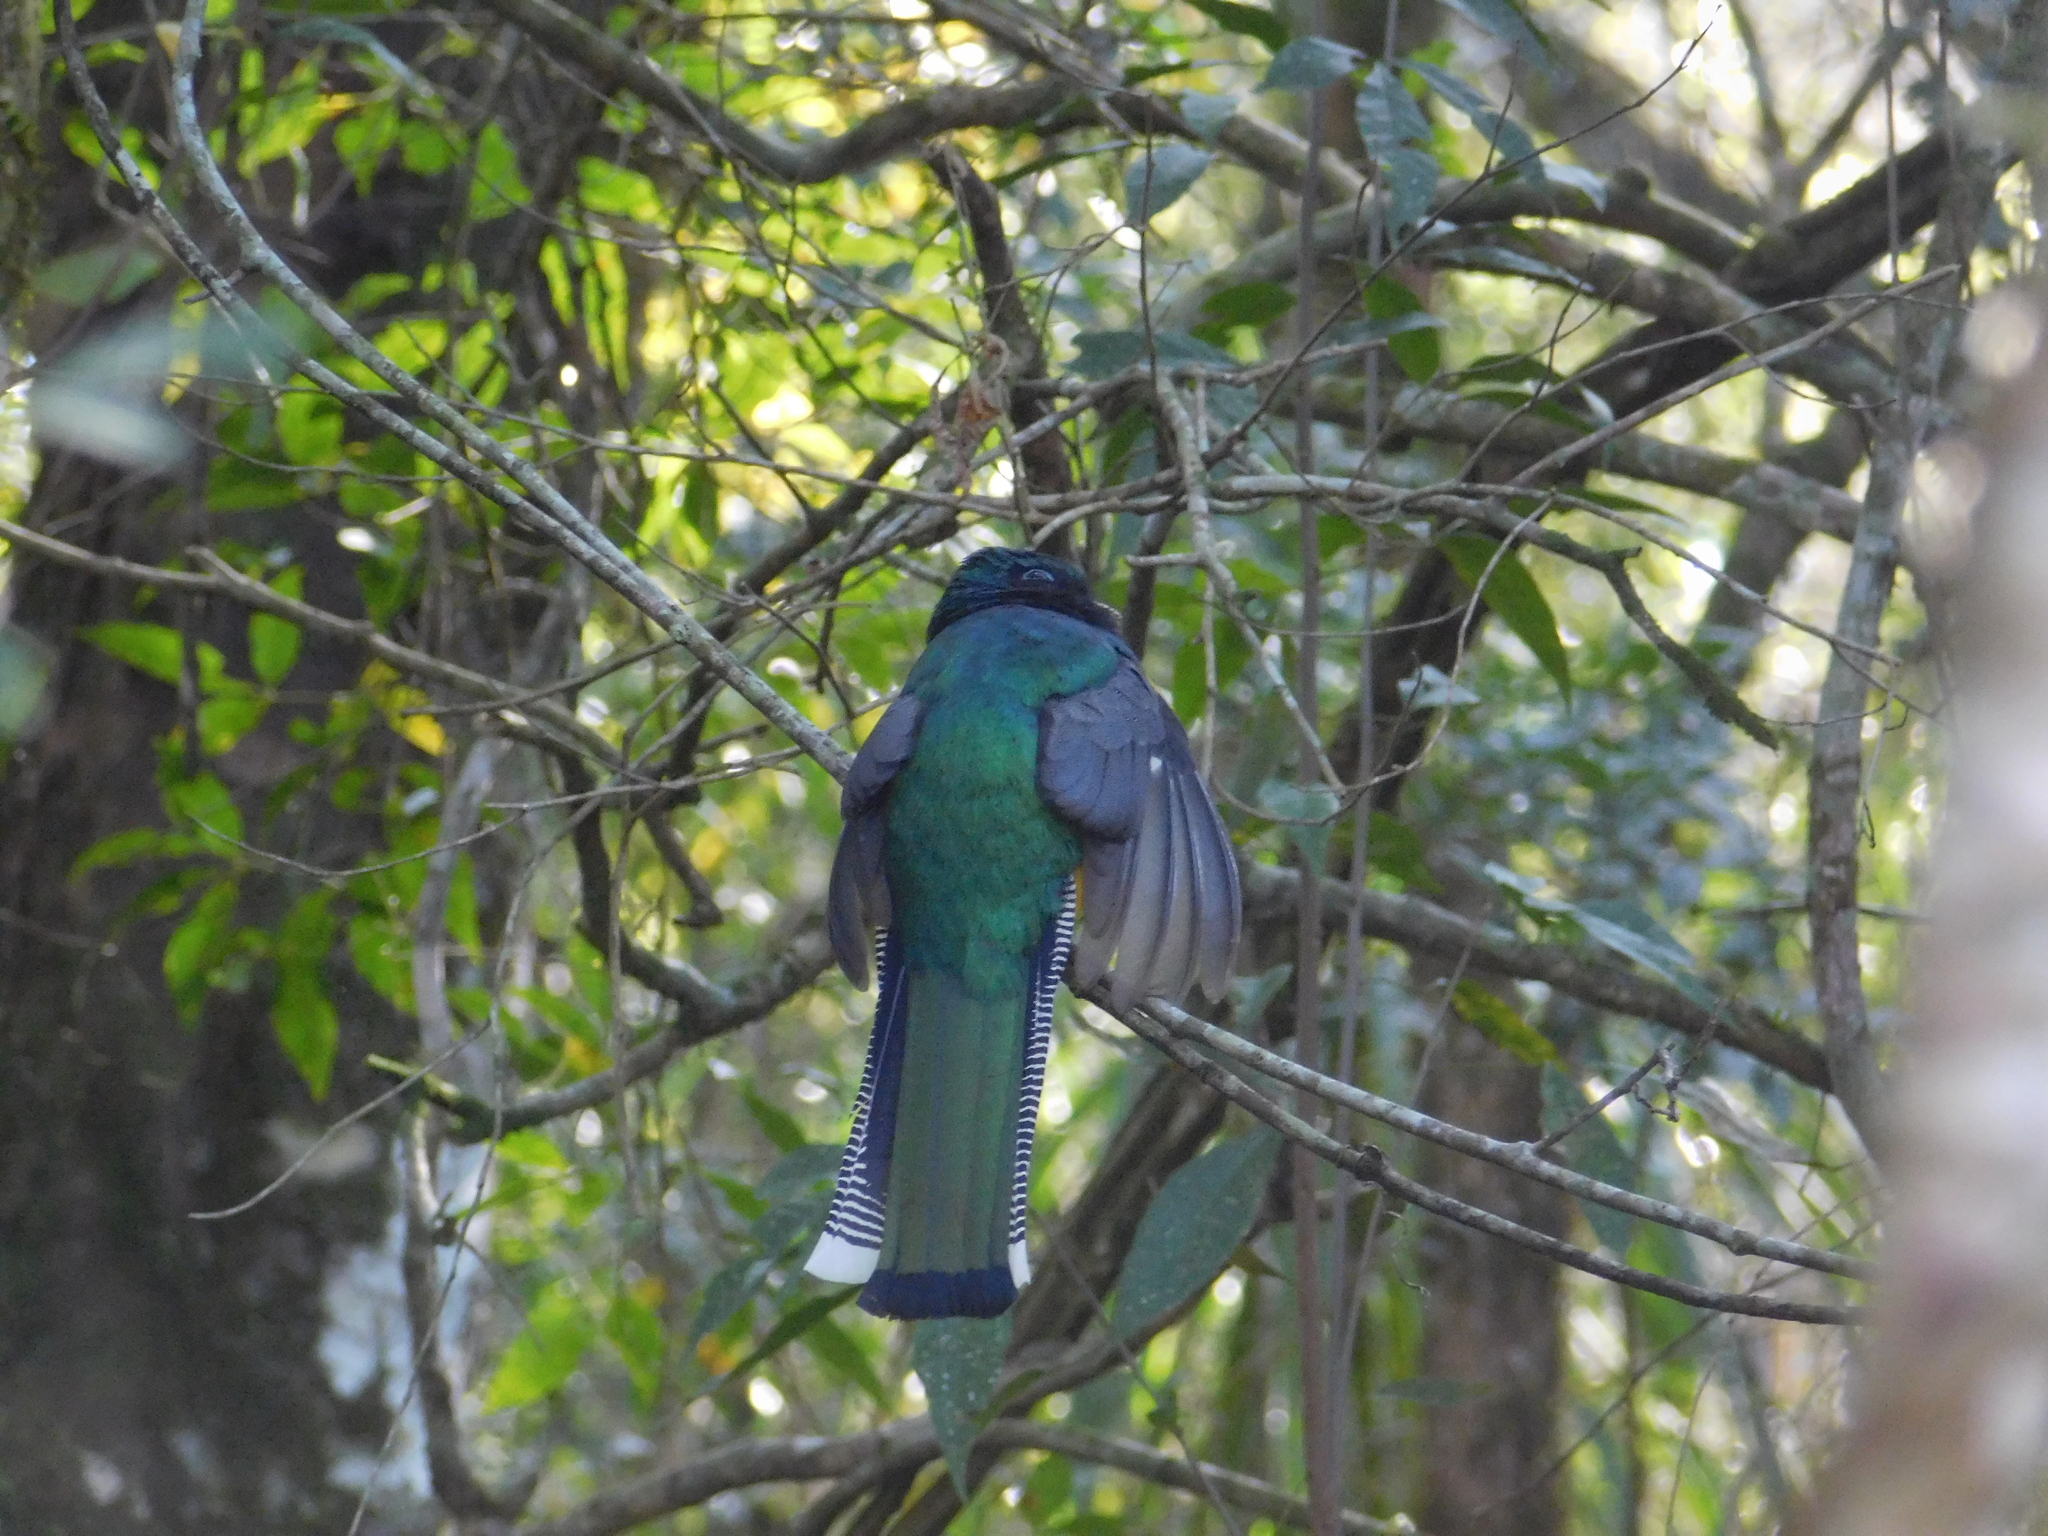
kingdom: Animalia
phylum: Chordata
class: Aves
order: Trogoniformes
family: Trogonidae
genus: Trogon
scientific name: Trogon surrucura
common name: Surucua trogon
